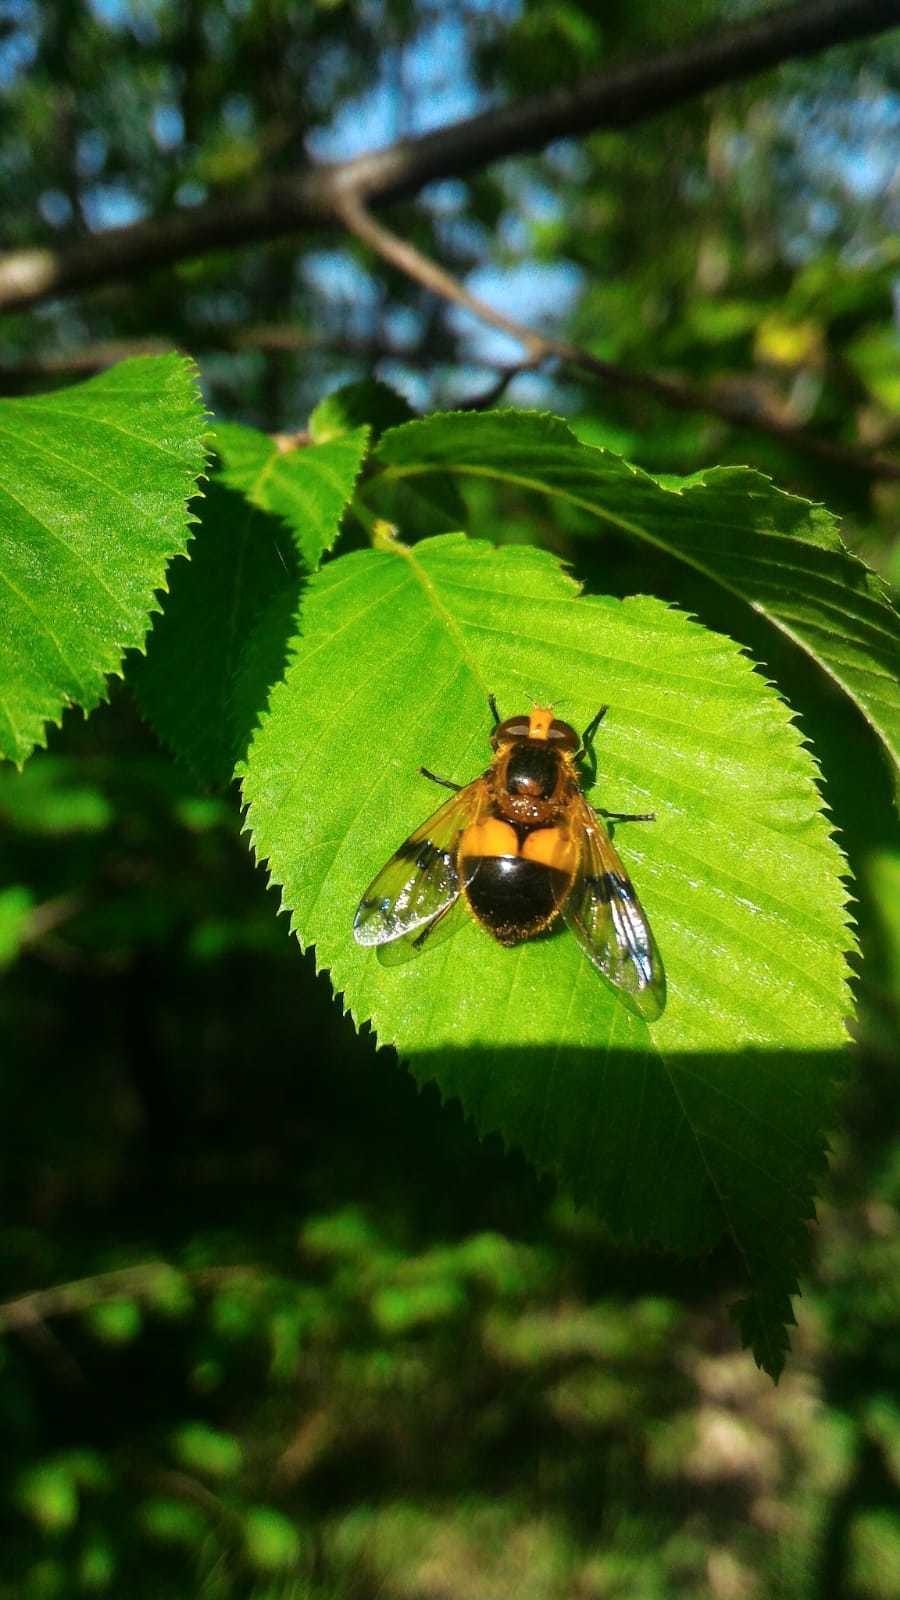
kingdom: Animalia
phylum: Arthropoda
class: Insecta
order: Diptera
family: Syrphidae
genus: Volucella
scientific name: Volucella inflata
